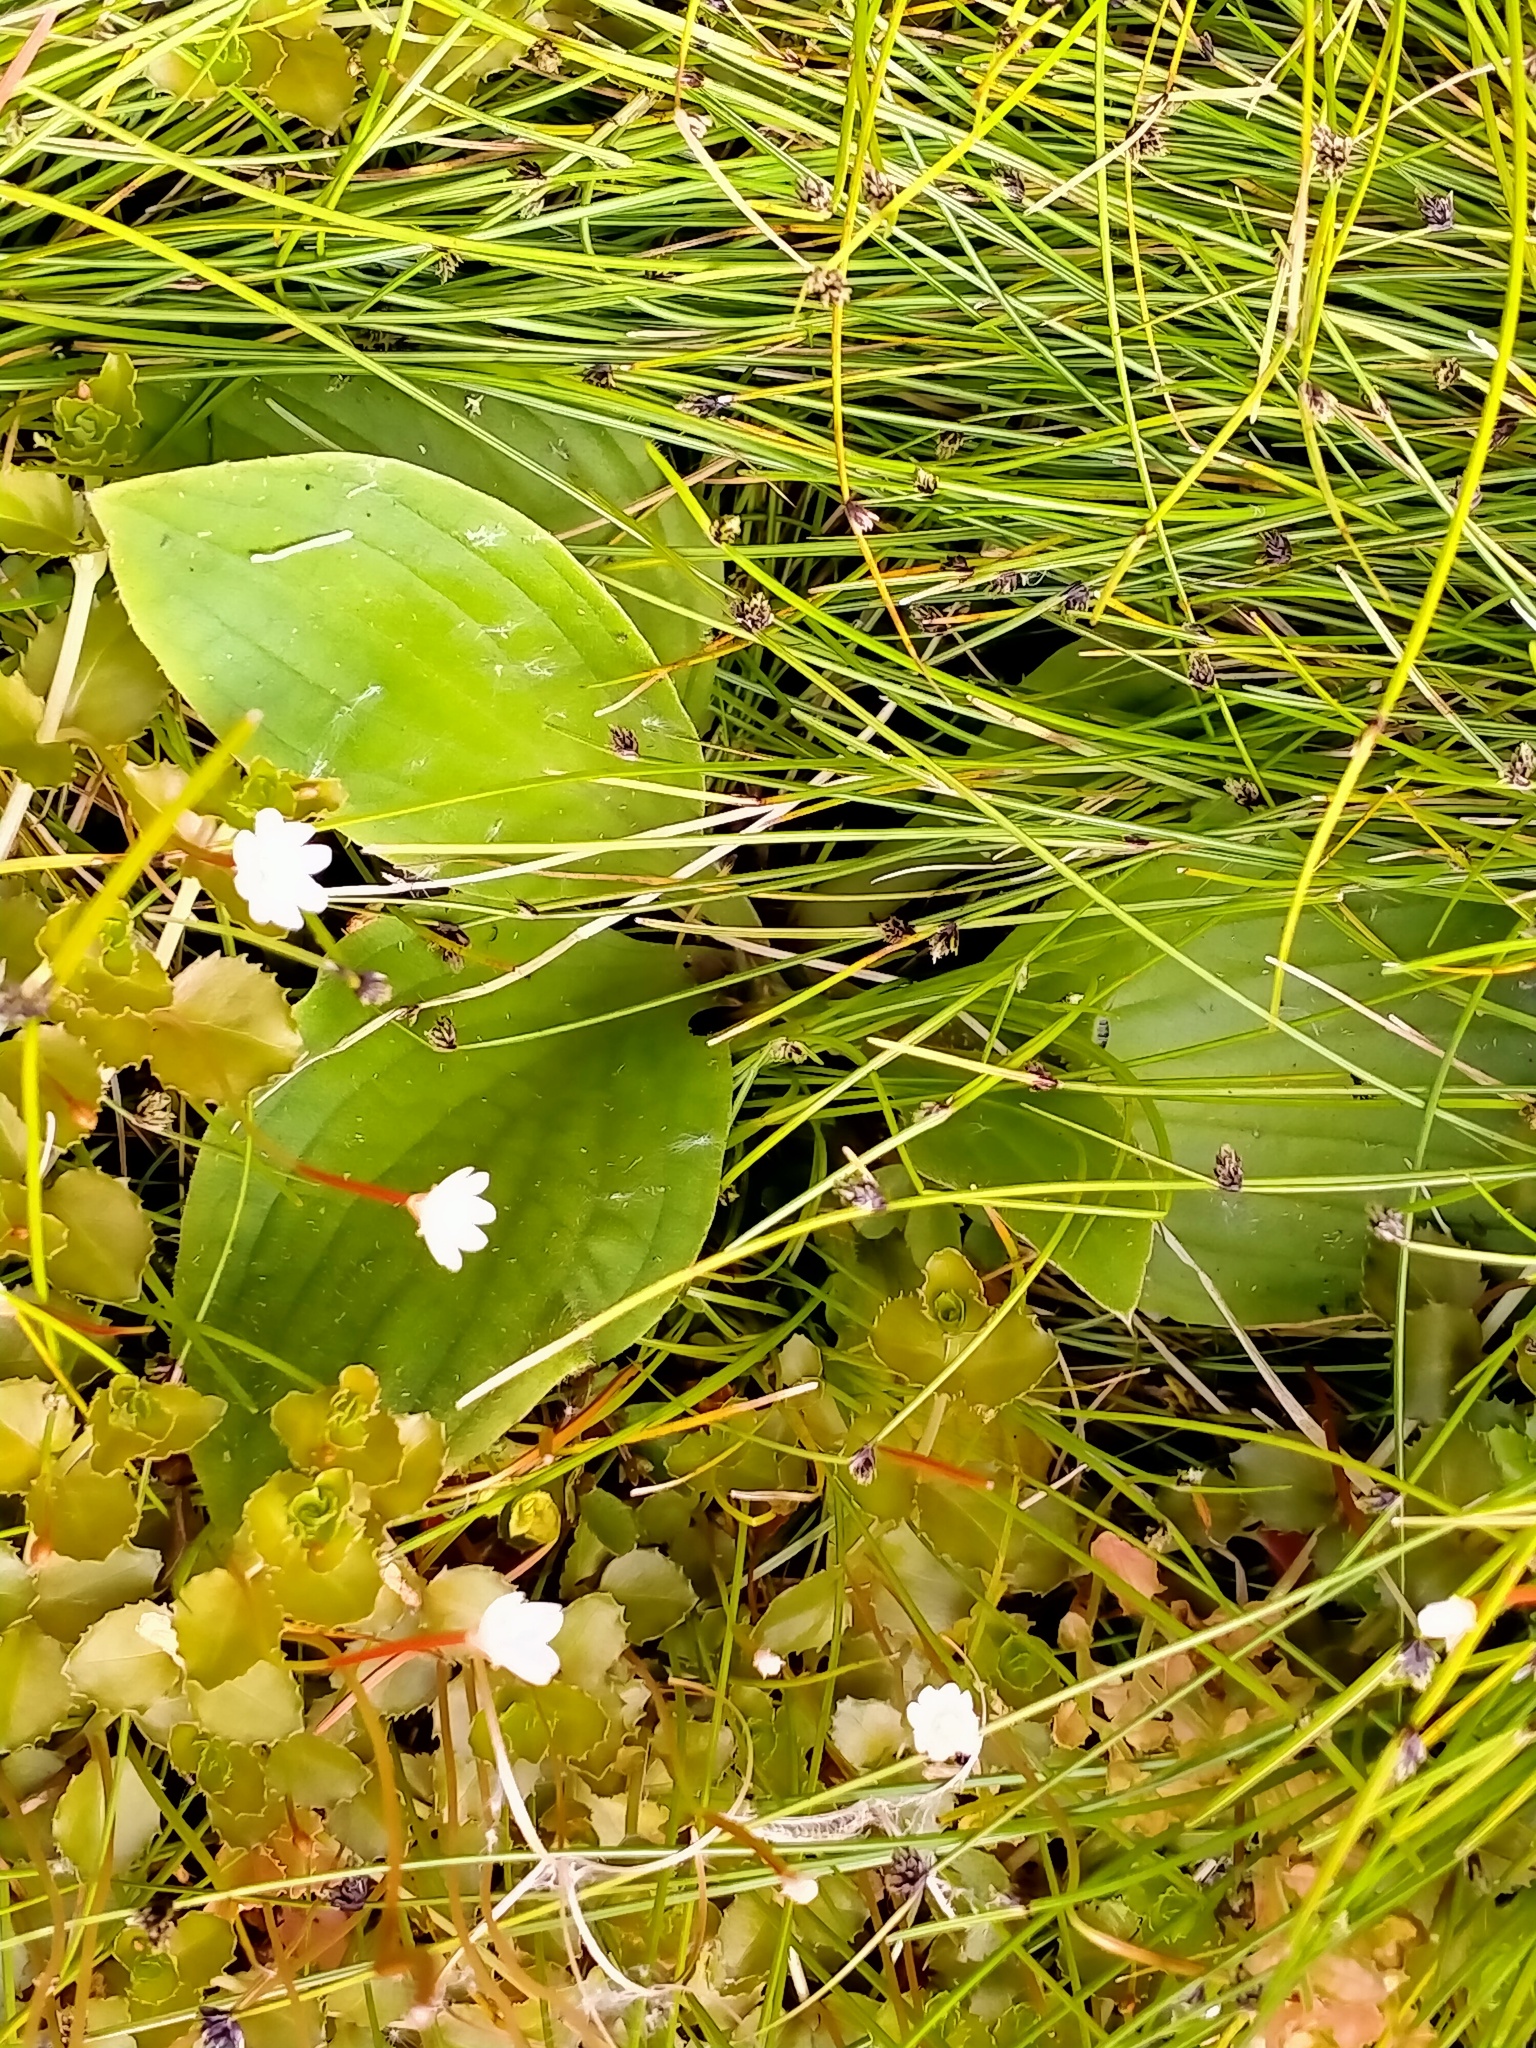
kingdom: Plantae
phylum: Tracheophyta
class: Magnoliopsida
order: Lamiales
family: Plantaginaceae
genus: Plantago
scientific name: Plantago aucklandica
